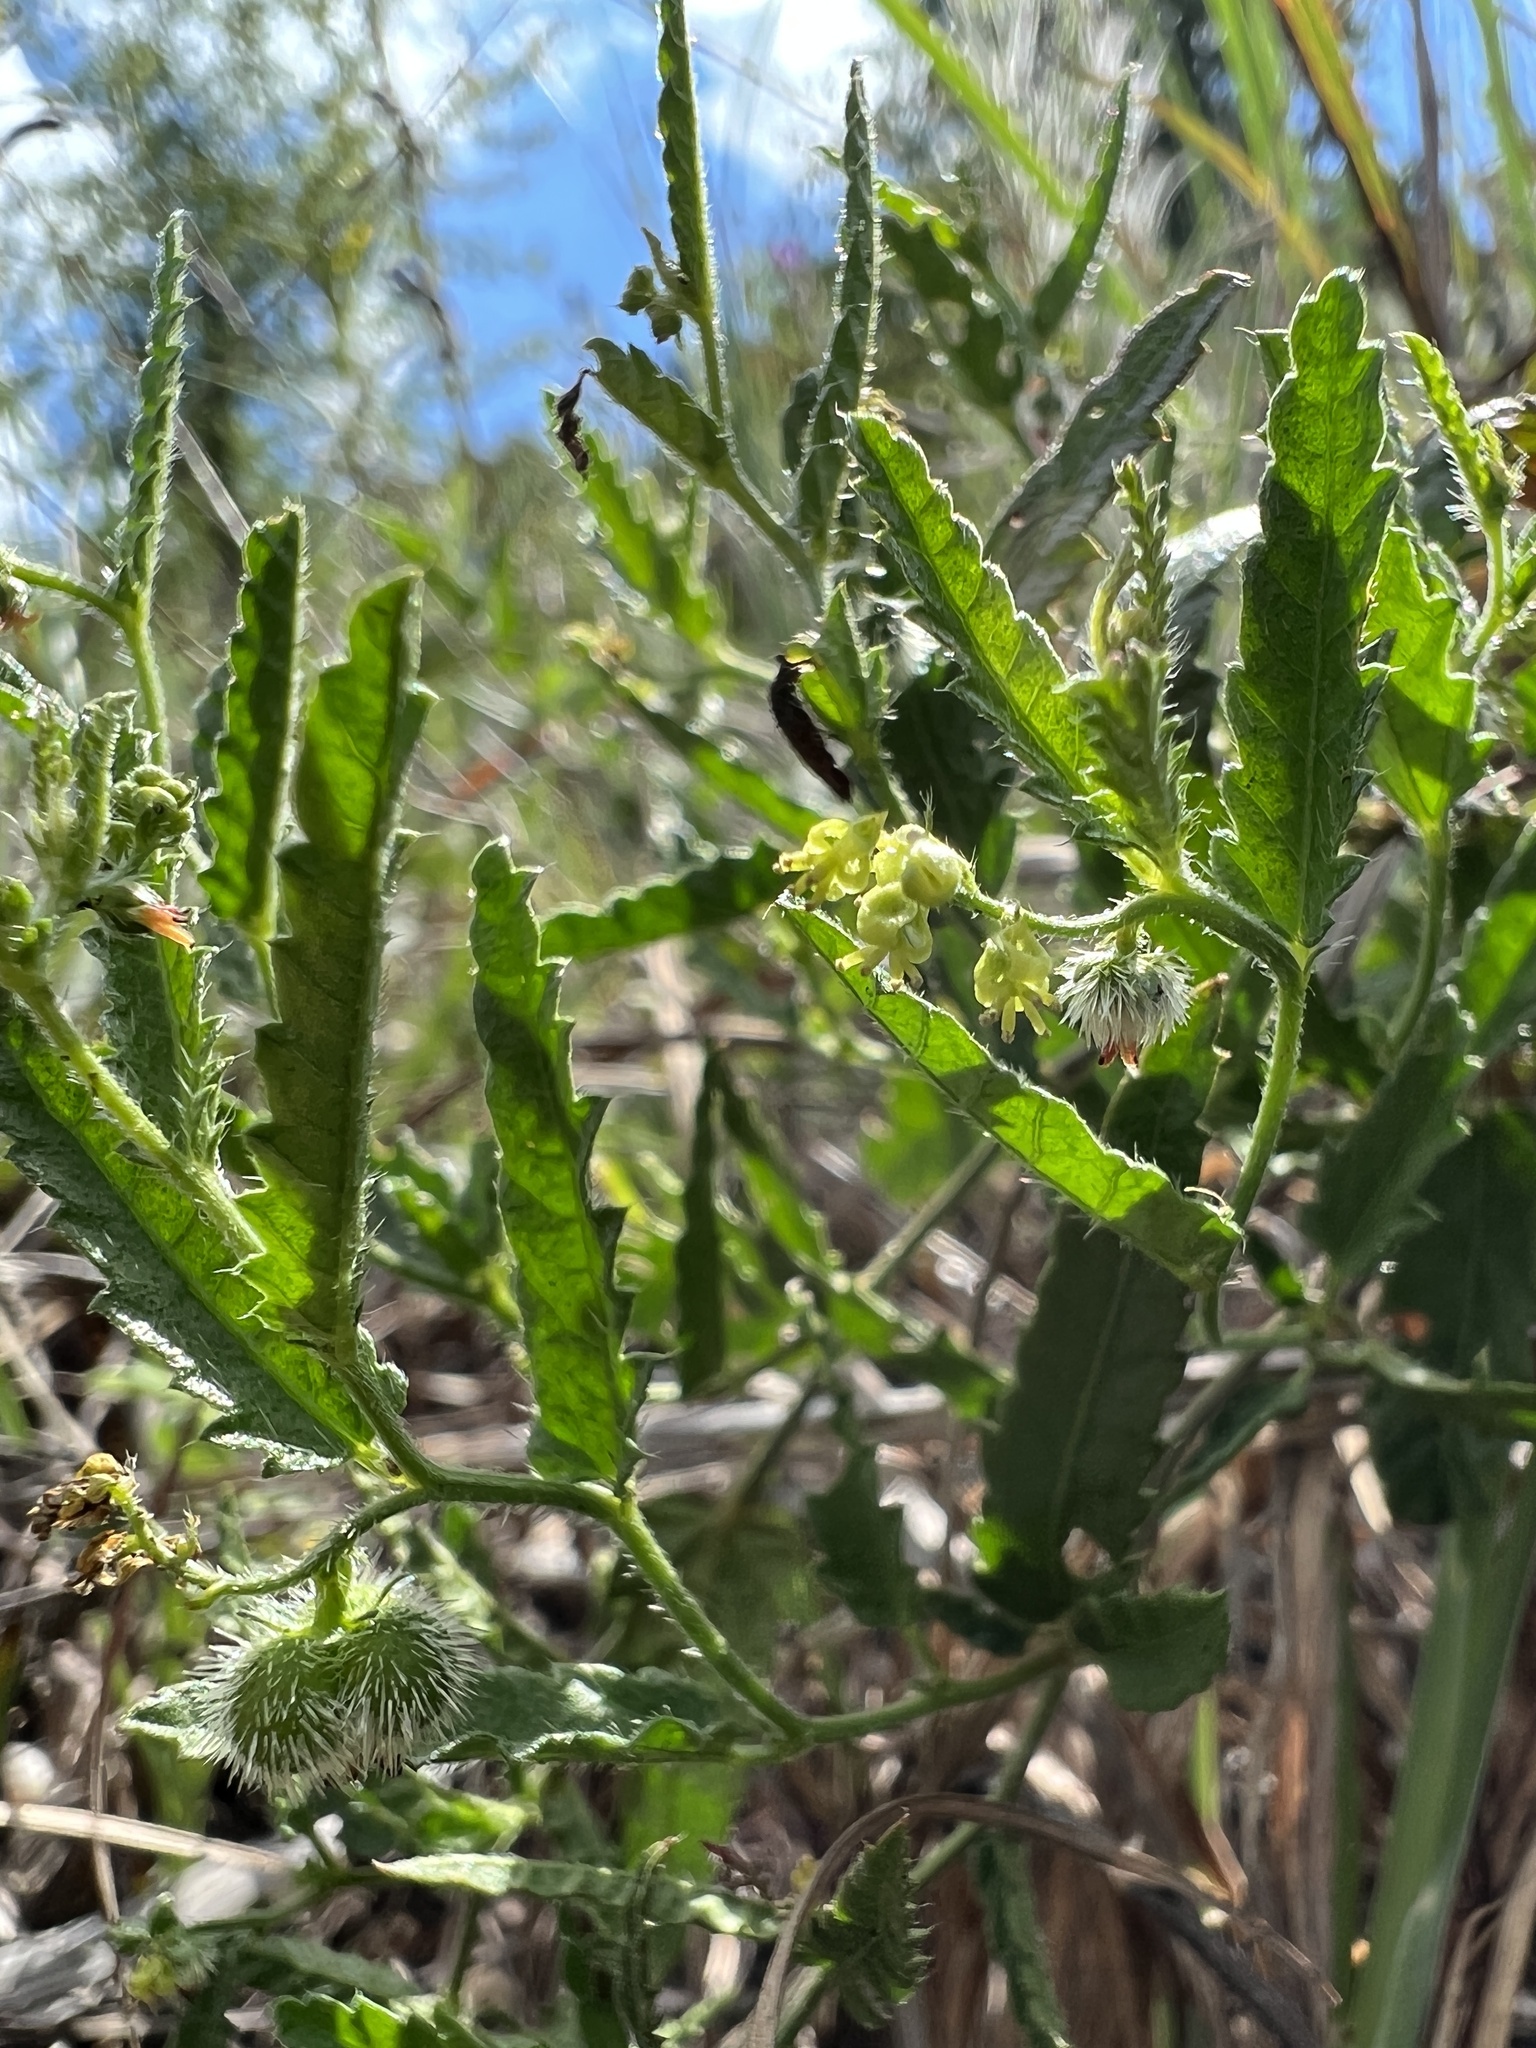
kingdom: Plantae
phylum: Tracheophyta
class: Magnoliopsida
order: Malpighiales
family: Euphorbiaceae
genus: Tragia
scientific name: Tragia ramosa
